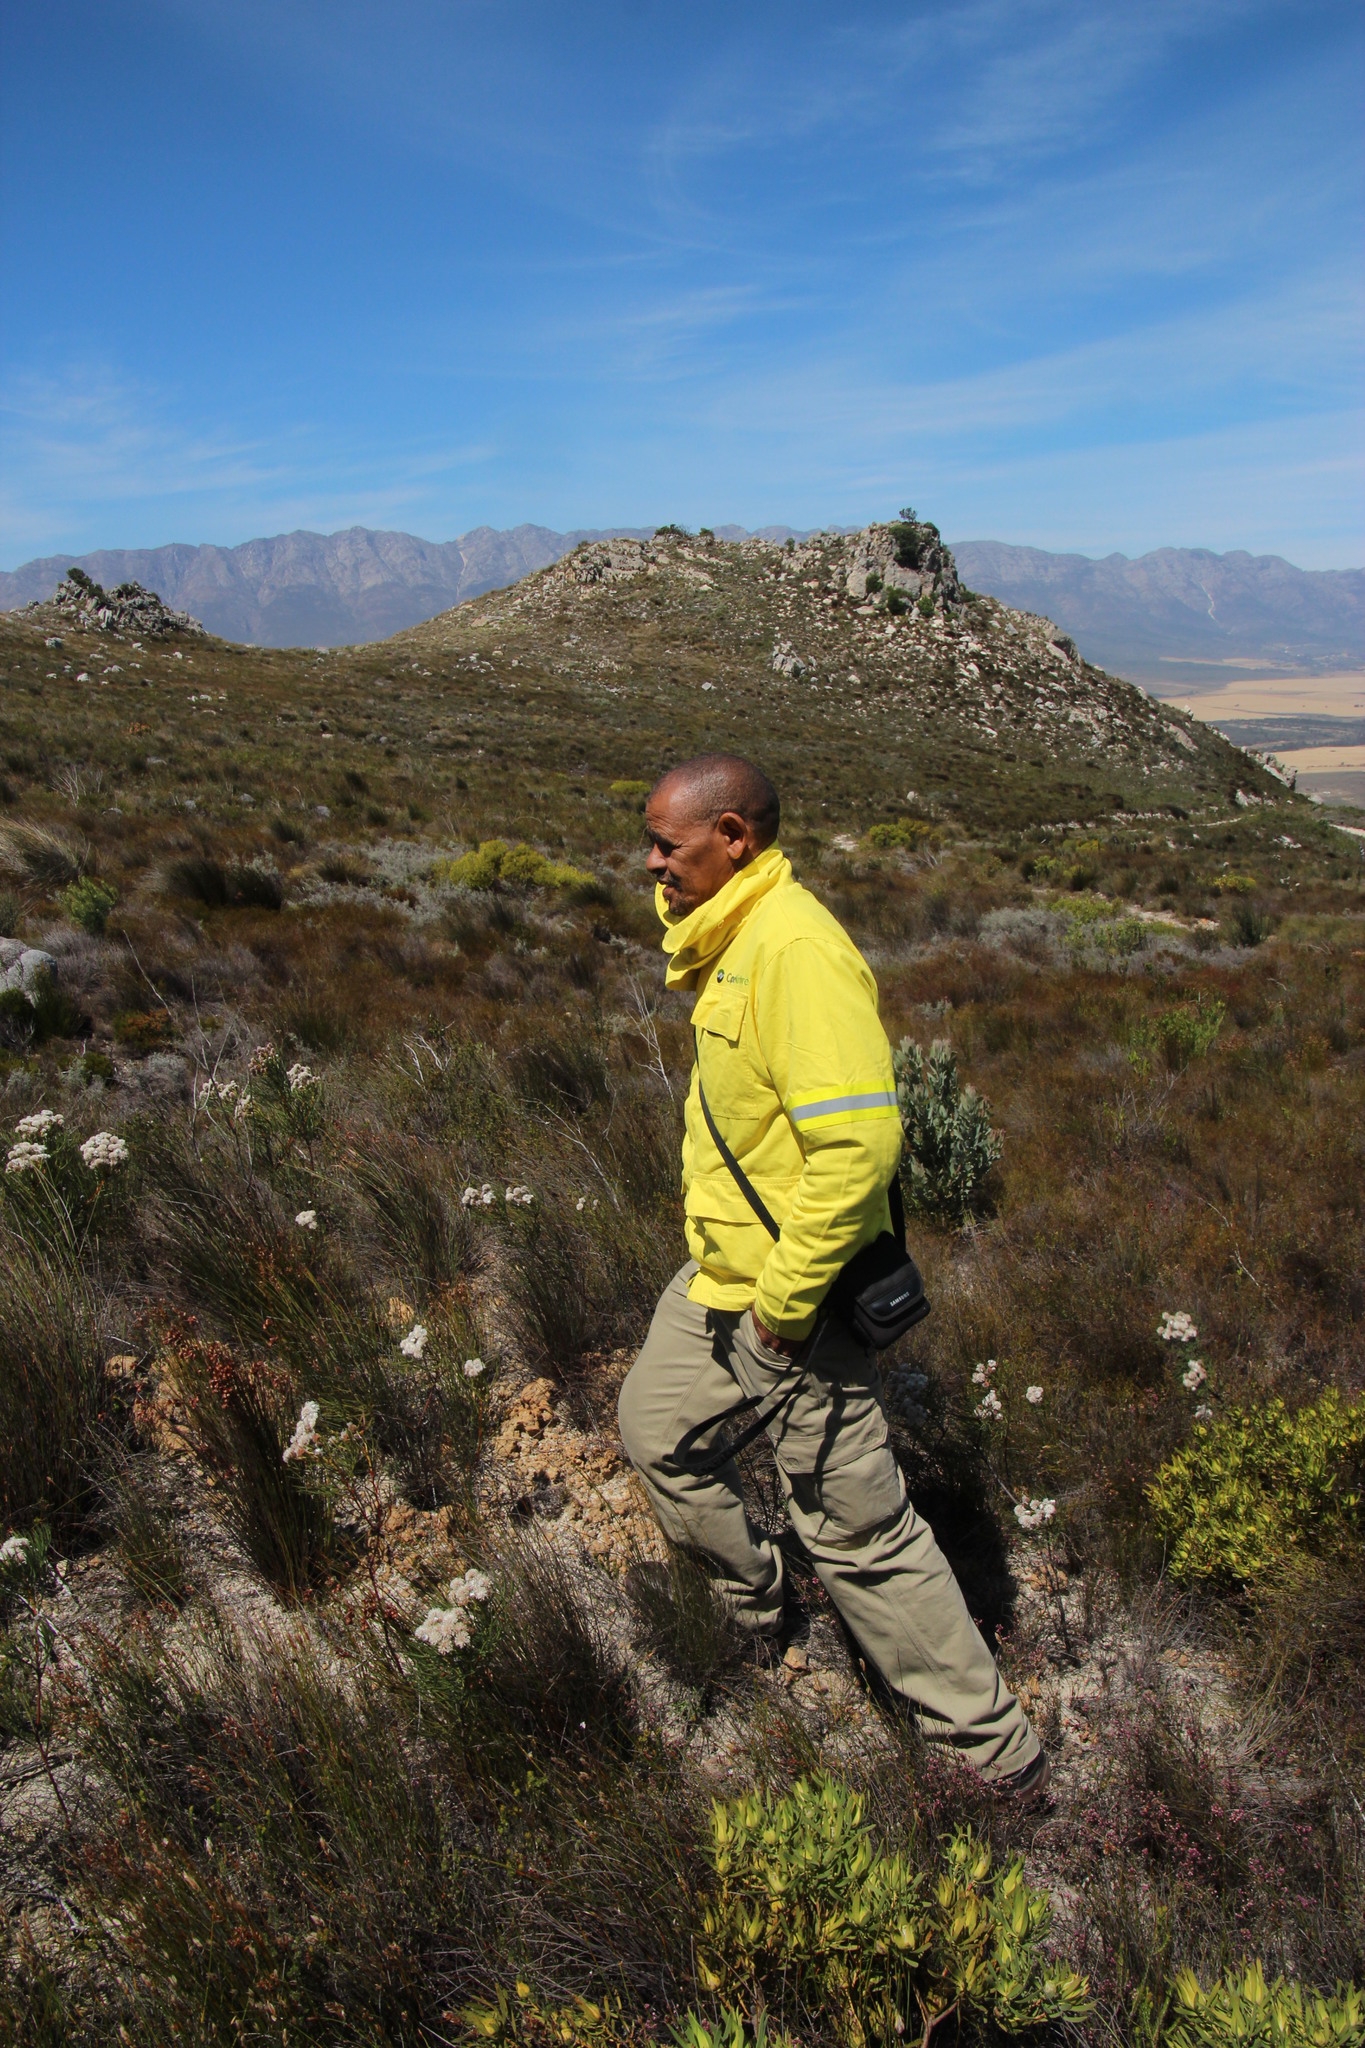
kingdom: Plantae
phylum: Tracheophyta
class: Magnoliopsida
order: Proteales
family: Proteaceae
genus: Sorocephalus
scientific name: Sorocephalus imbricatus
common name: Tile-leaf clusterhead
